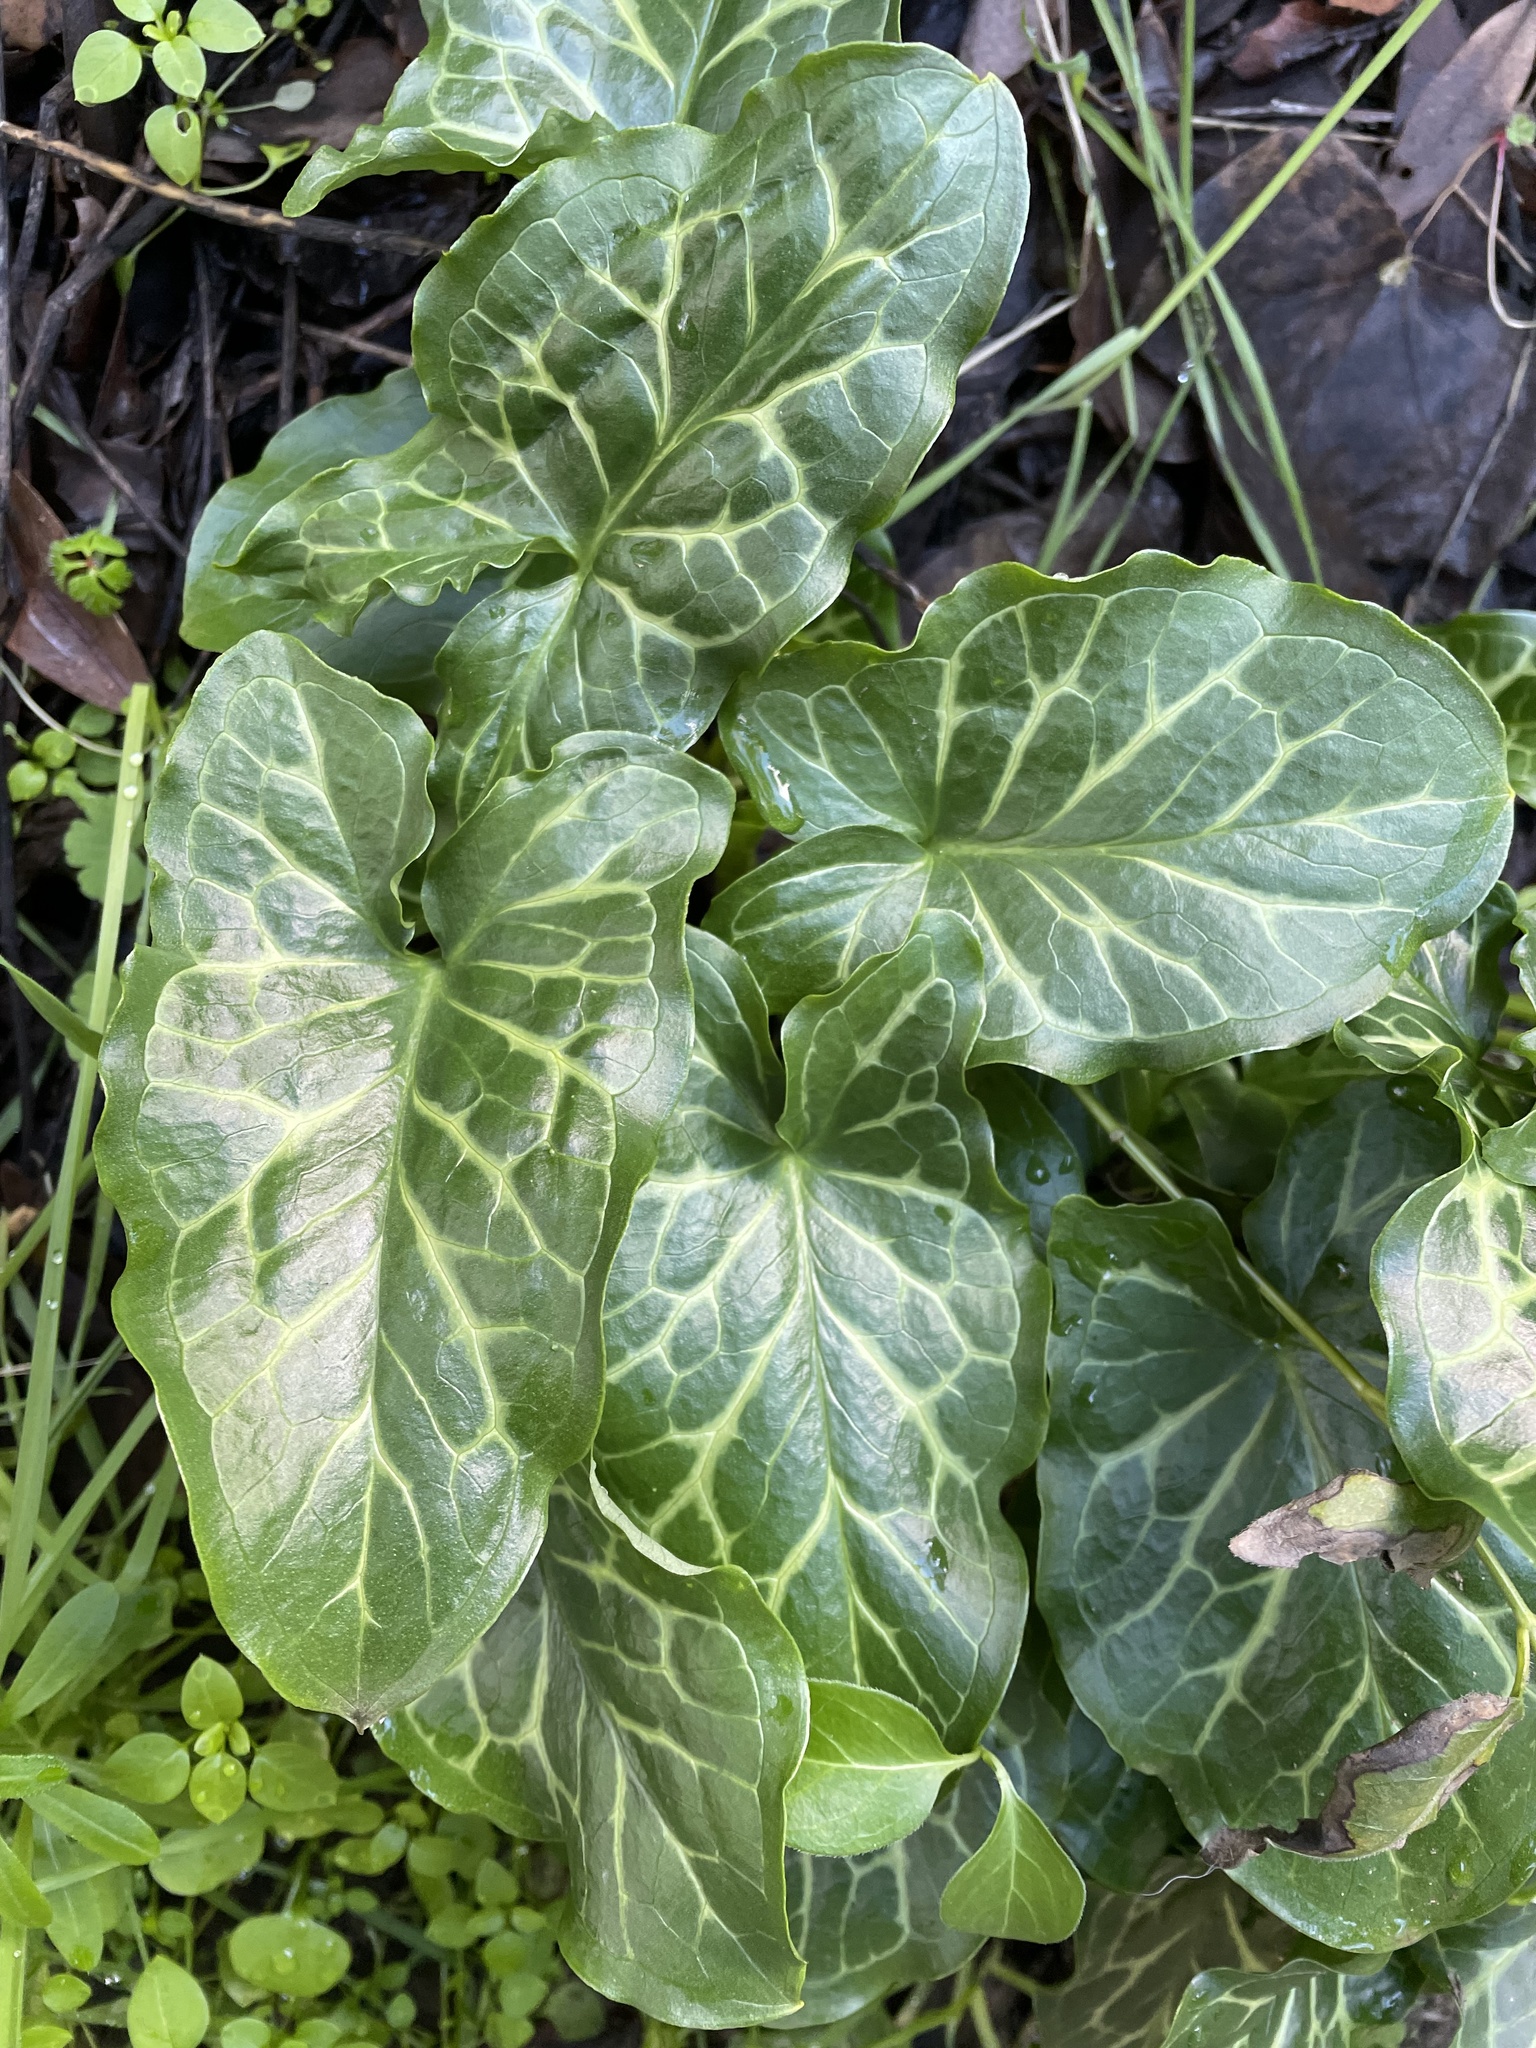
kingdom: Plantae
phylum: Tracheophyta
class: Liliopsida
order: Alismatales
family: Araceae
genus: Arum
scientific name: Arum italicum
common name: Italian lords-and-ladies
